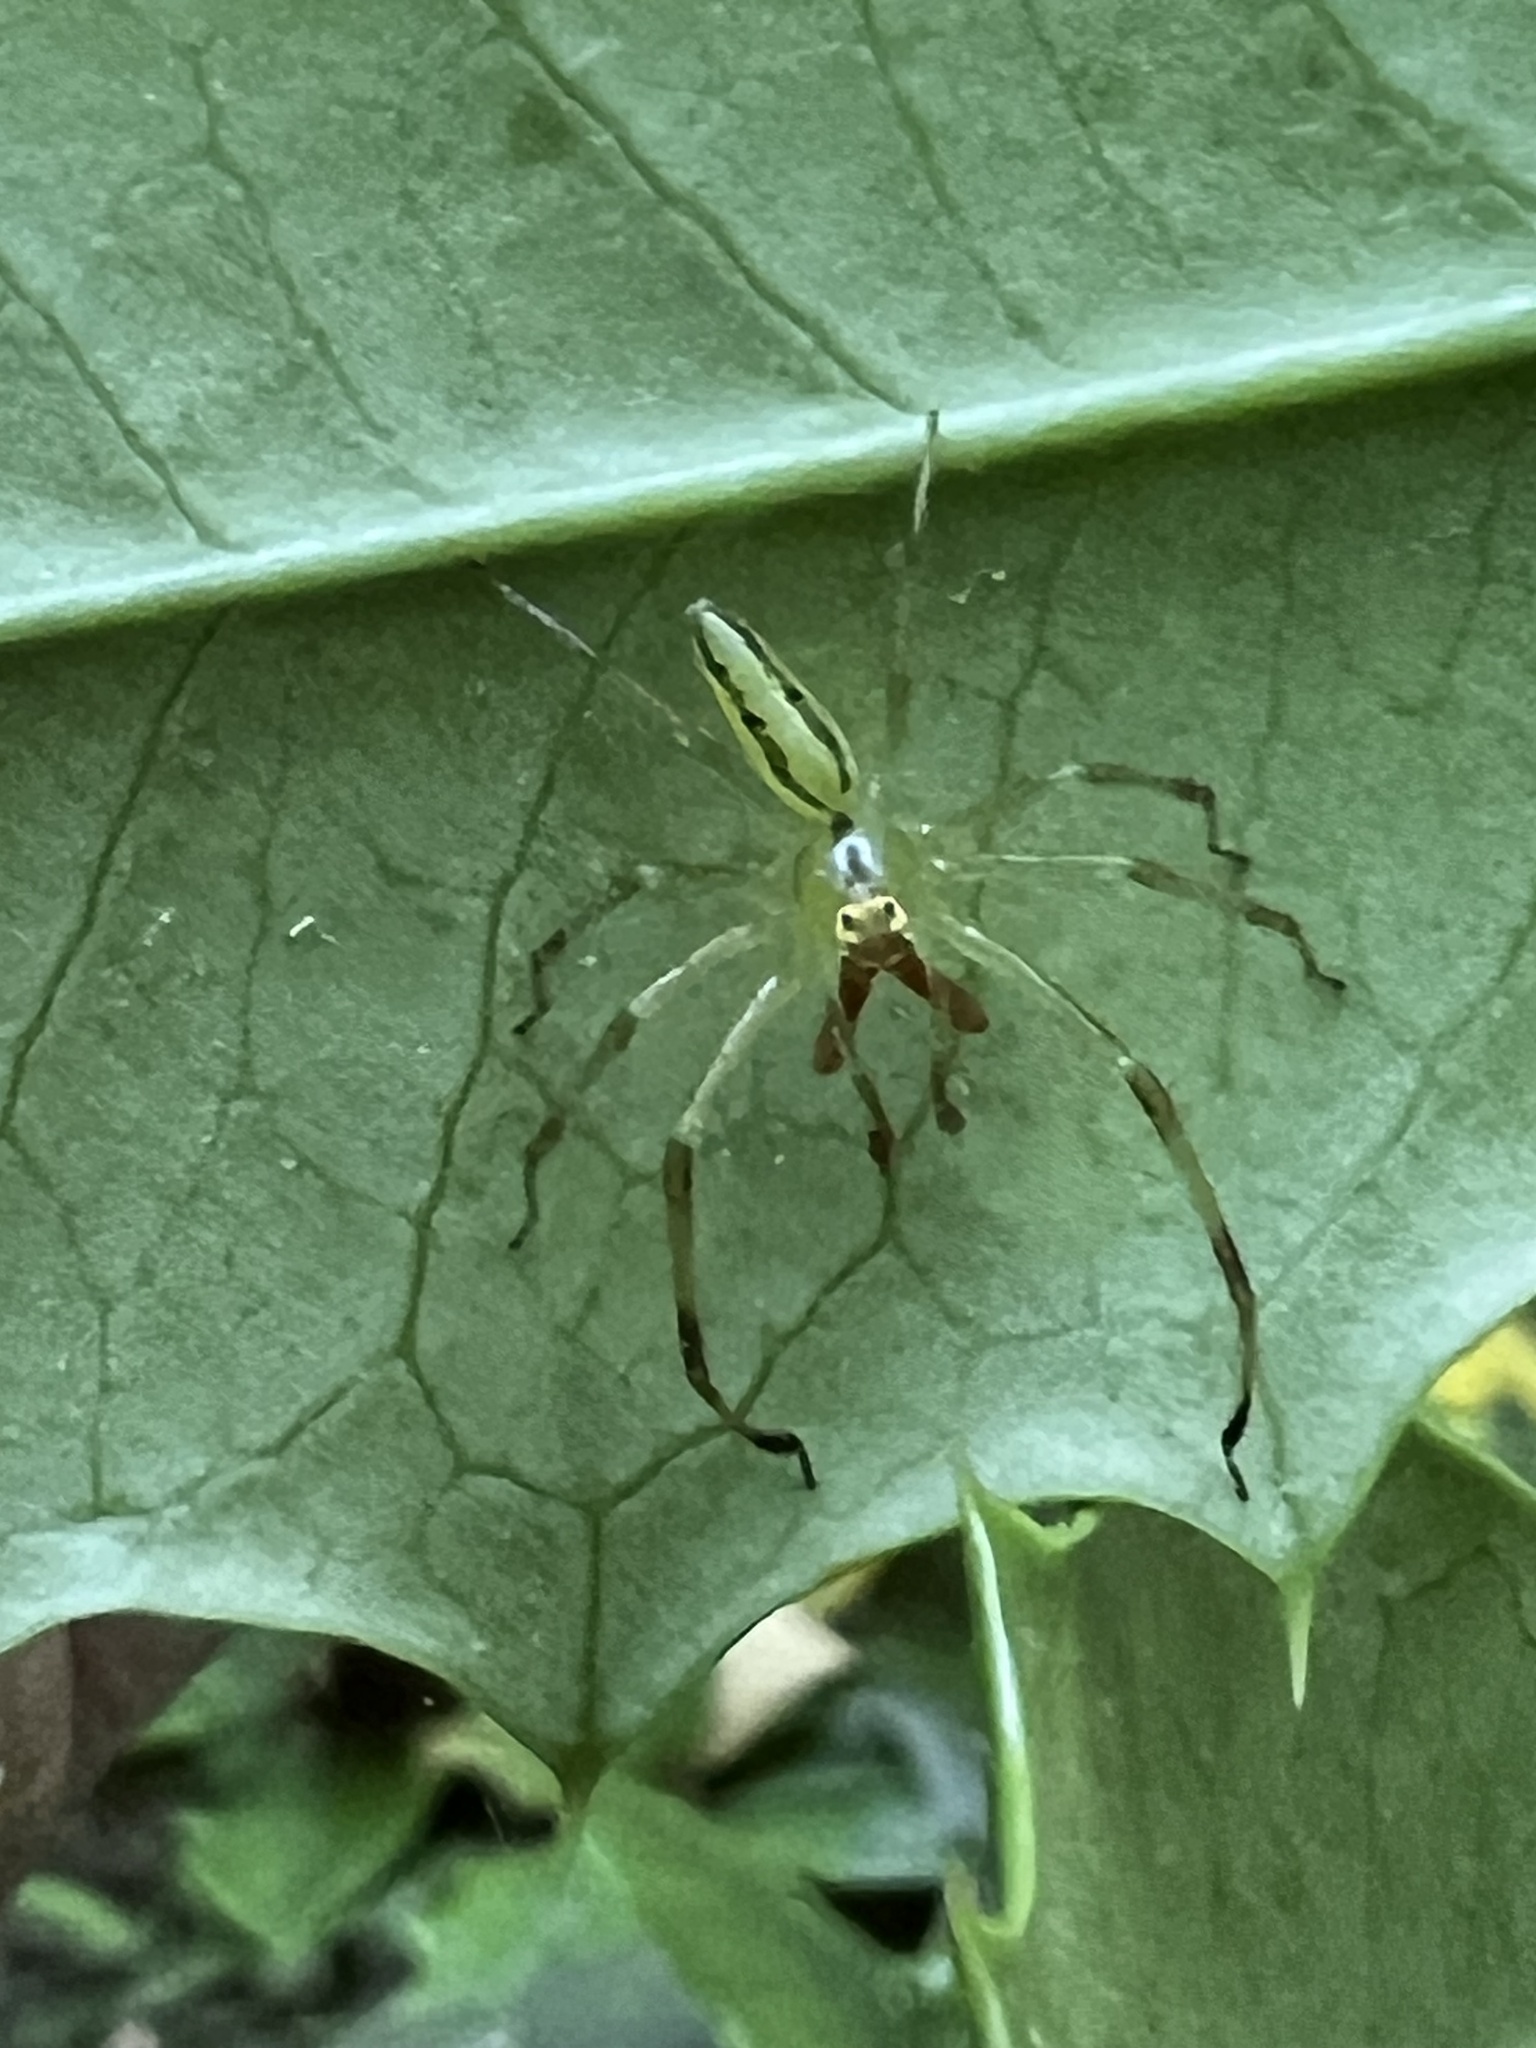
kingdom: Animalia
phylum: Arthropoda
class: Arachnida
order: Araneae
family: Salticidae
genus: Lyssomanes
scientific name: Lyssomanes viridis
